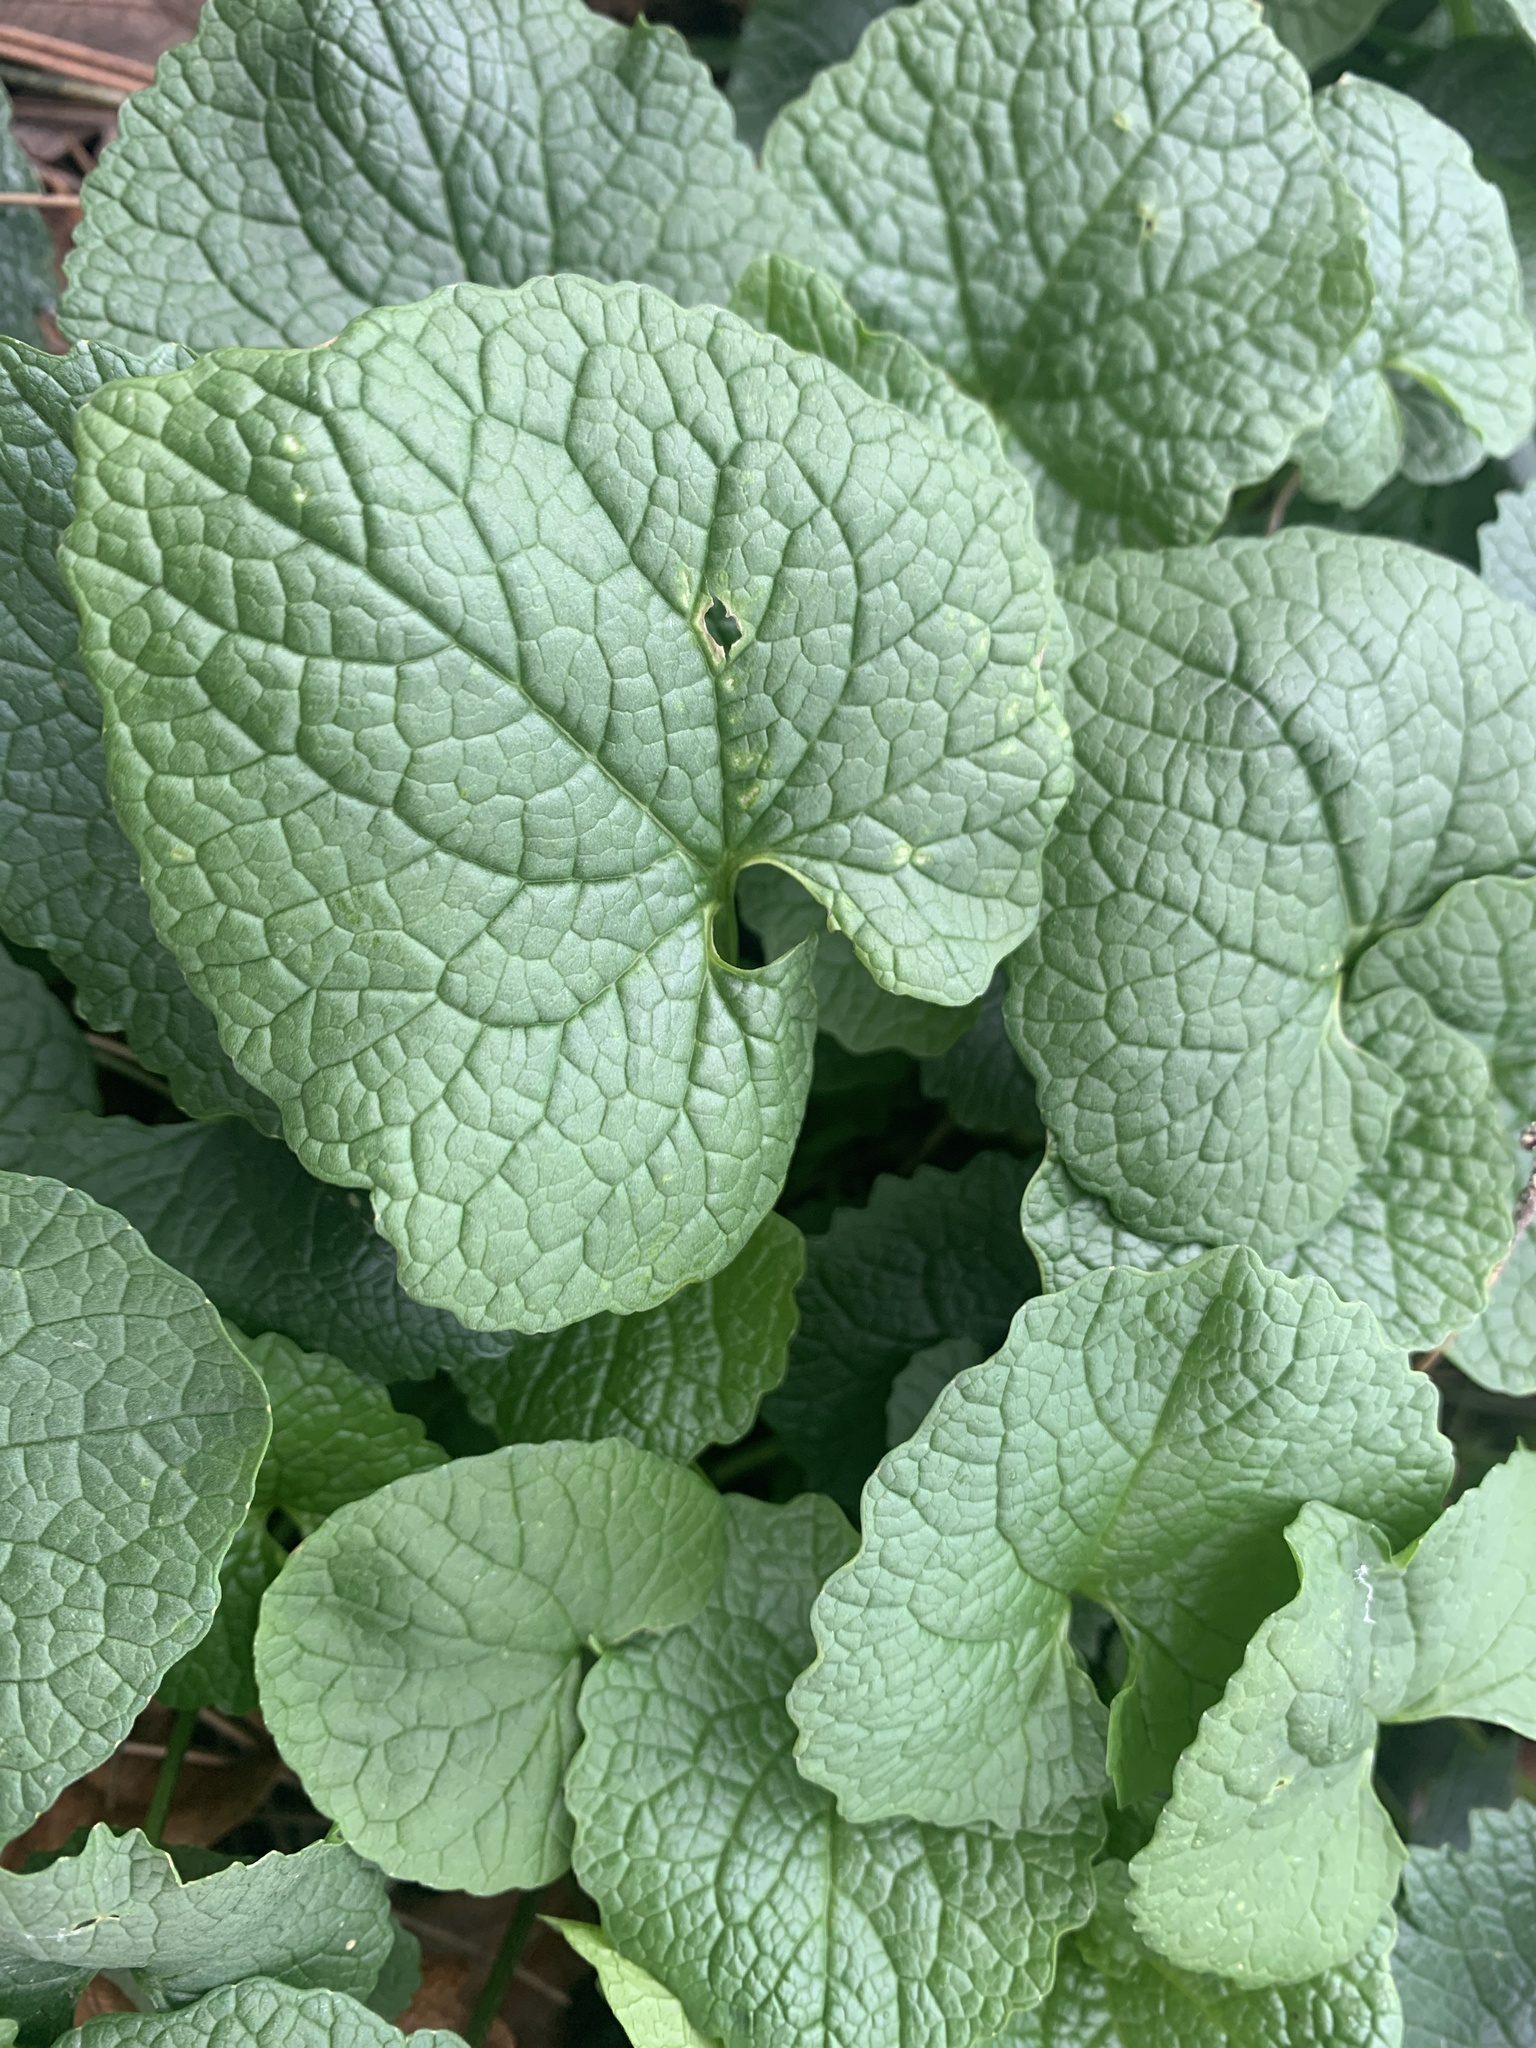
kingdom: Plantae
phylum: Tracheophyta
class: Magnoliopsida
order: Brassicales
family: Brassicaceae
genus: Alliaria
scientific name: Alliaria petiolata
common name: Garlic mustard
